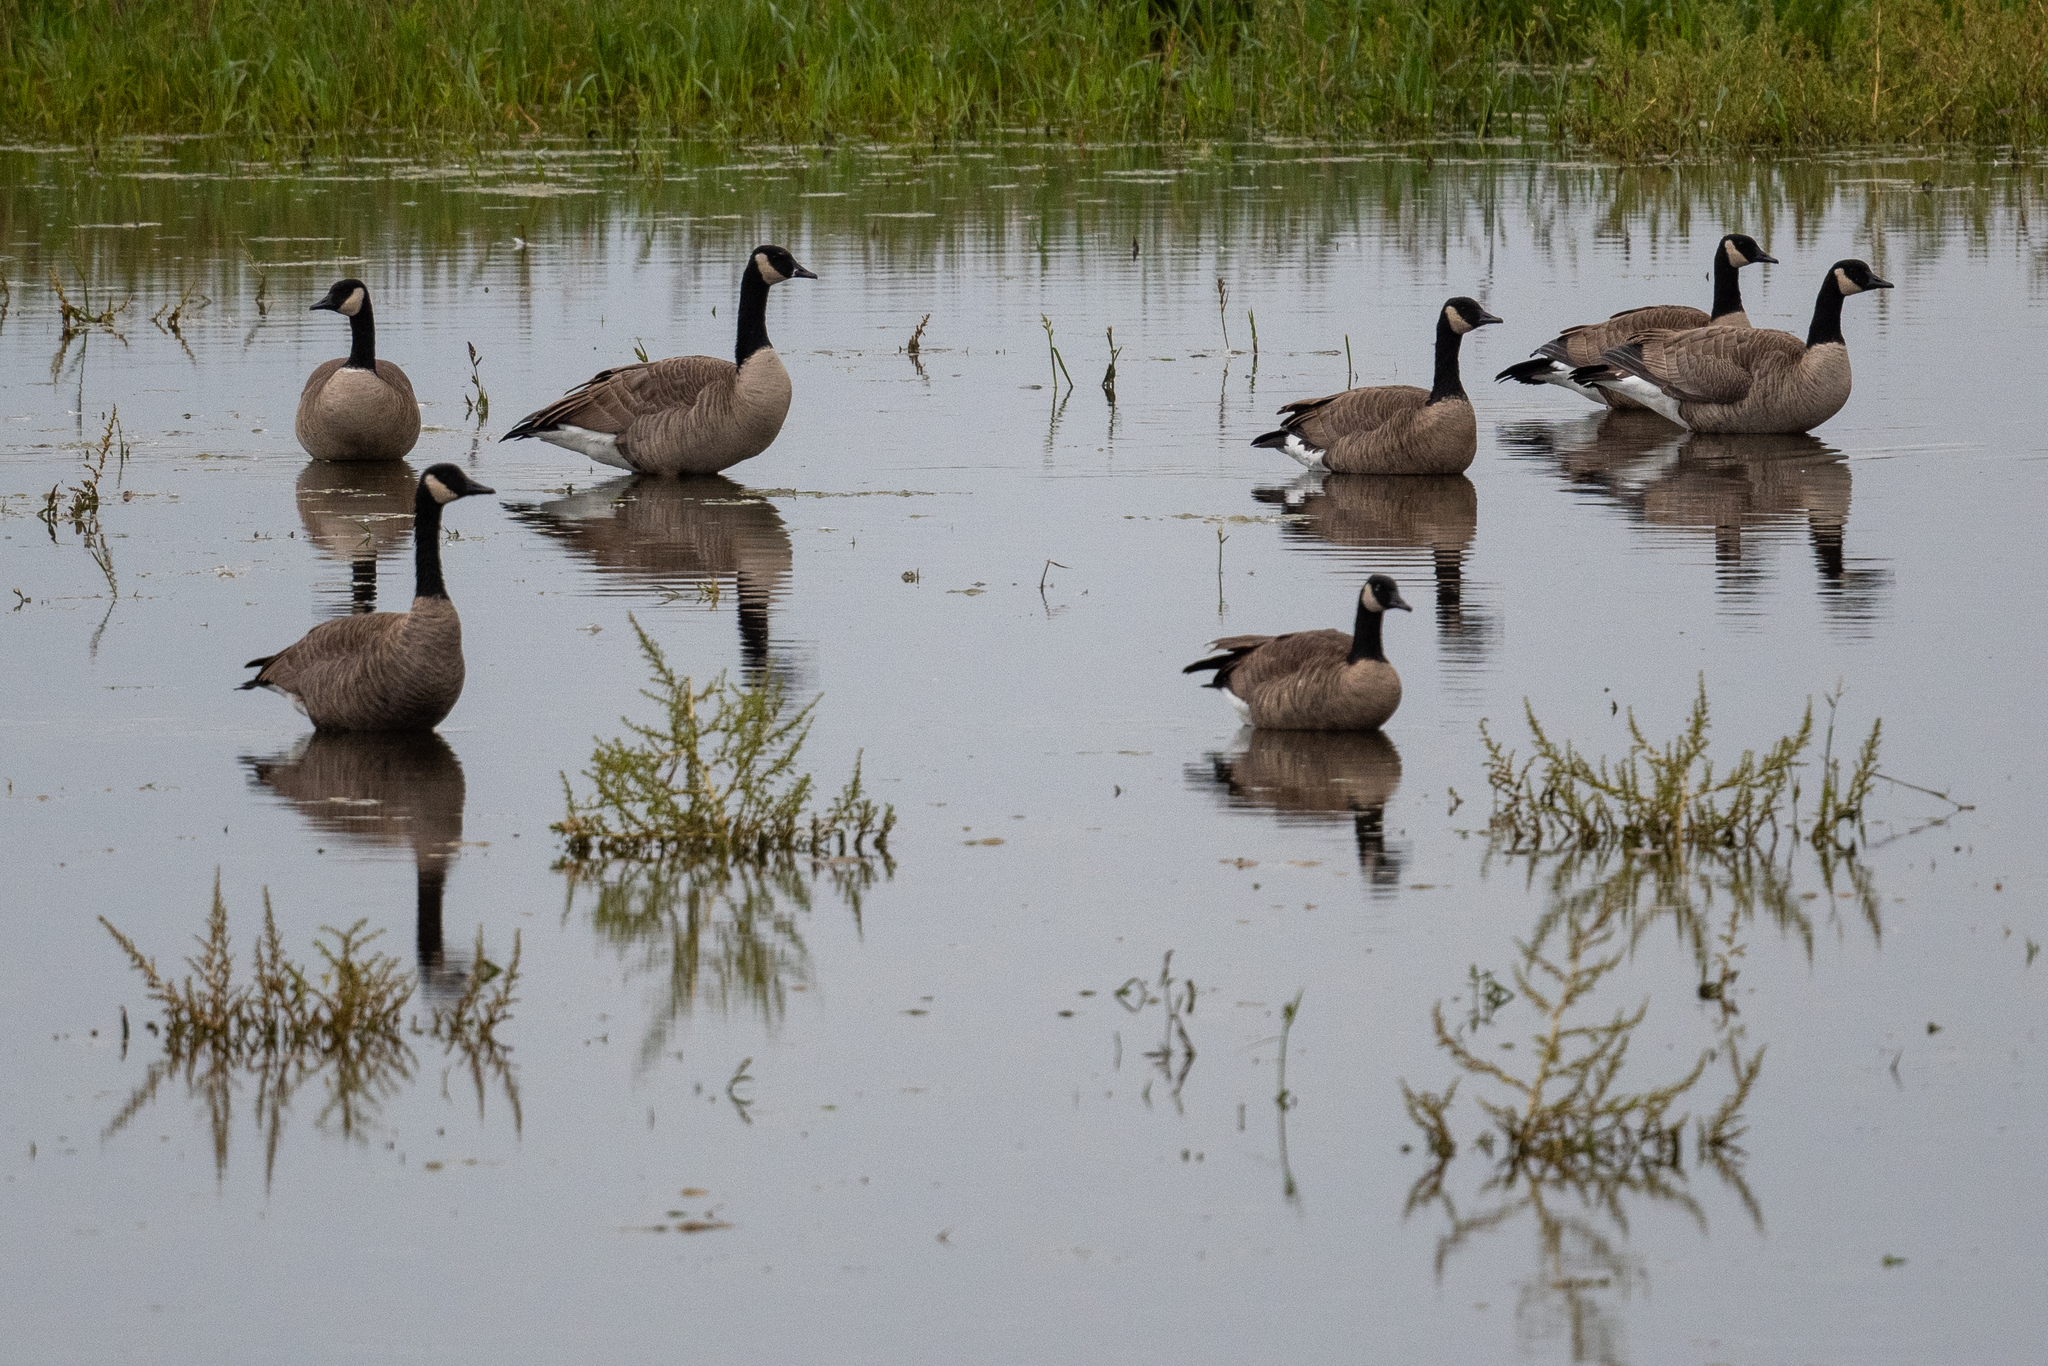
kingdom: Animalia
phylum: Chordata
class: Aves
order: Anseriformes
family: Anatidae
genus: Branta
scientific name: Branta canadensis
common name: Canada goose
